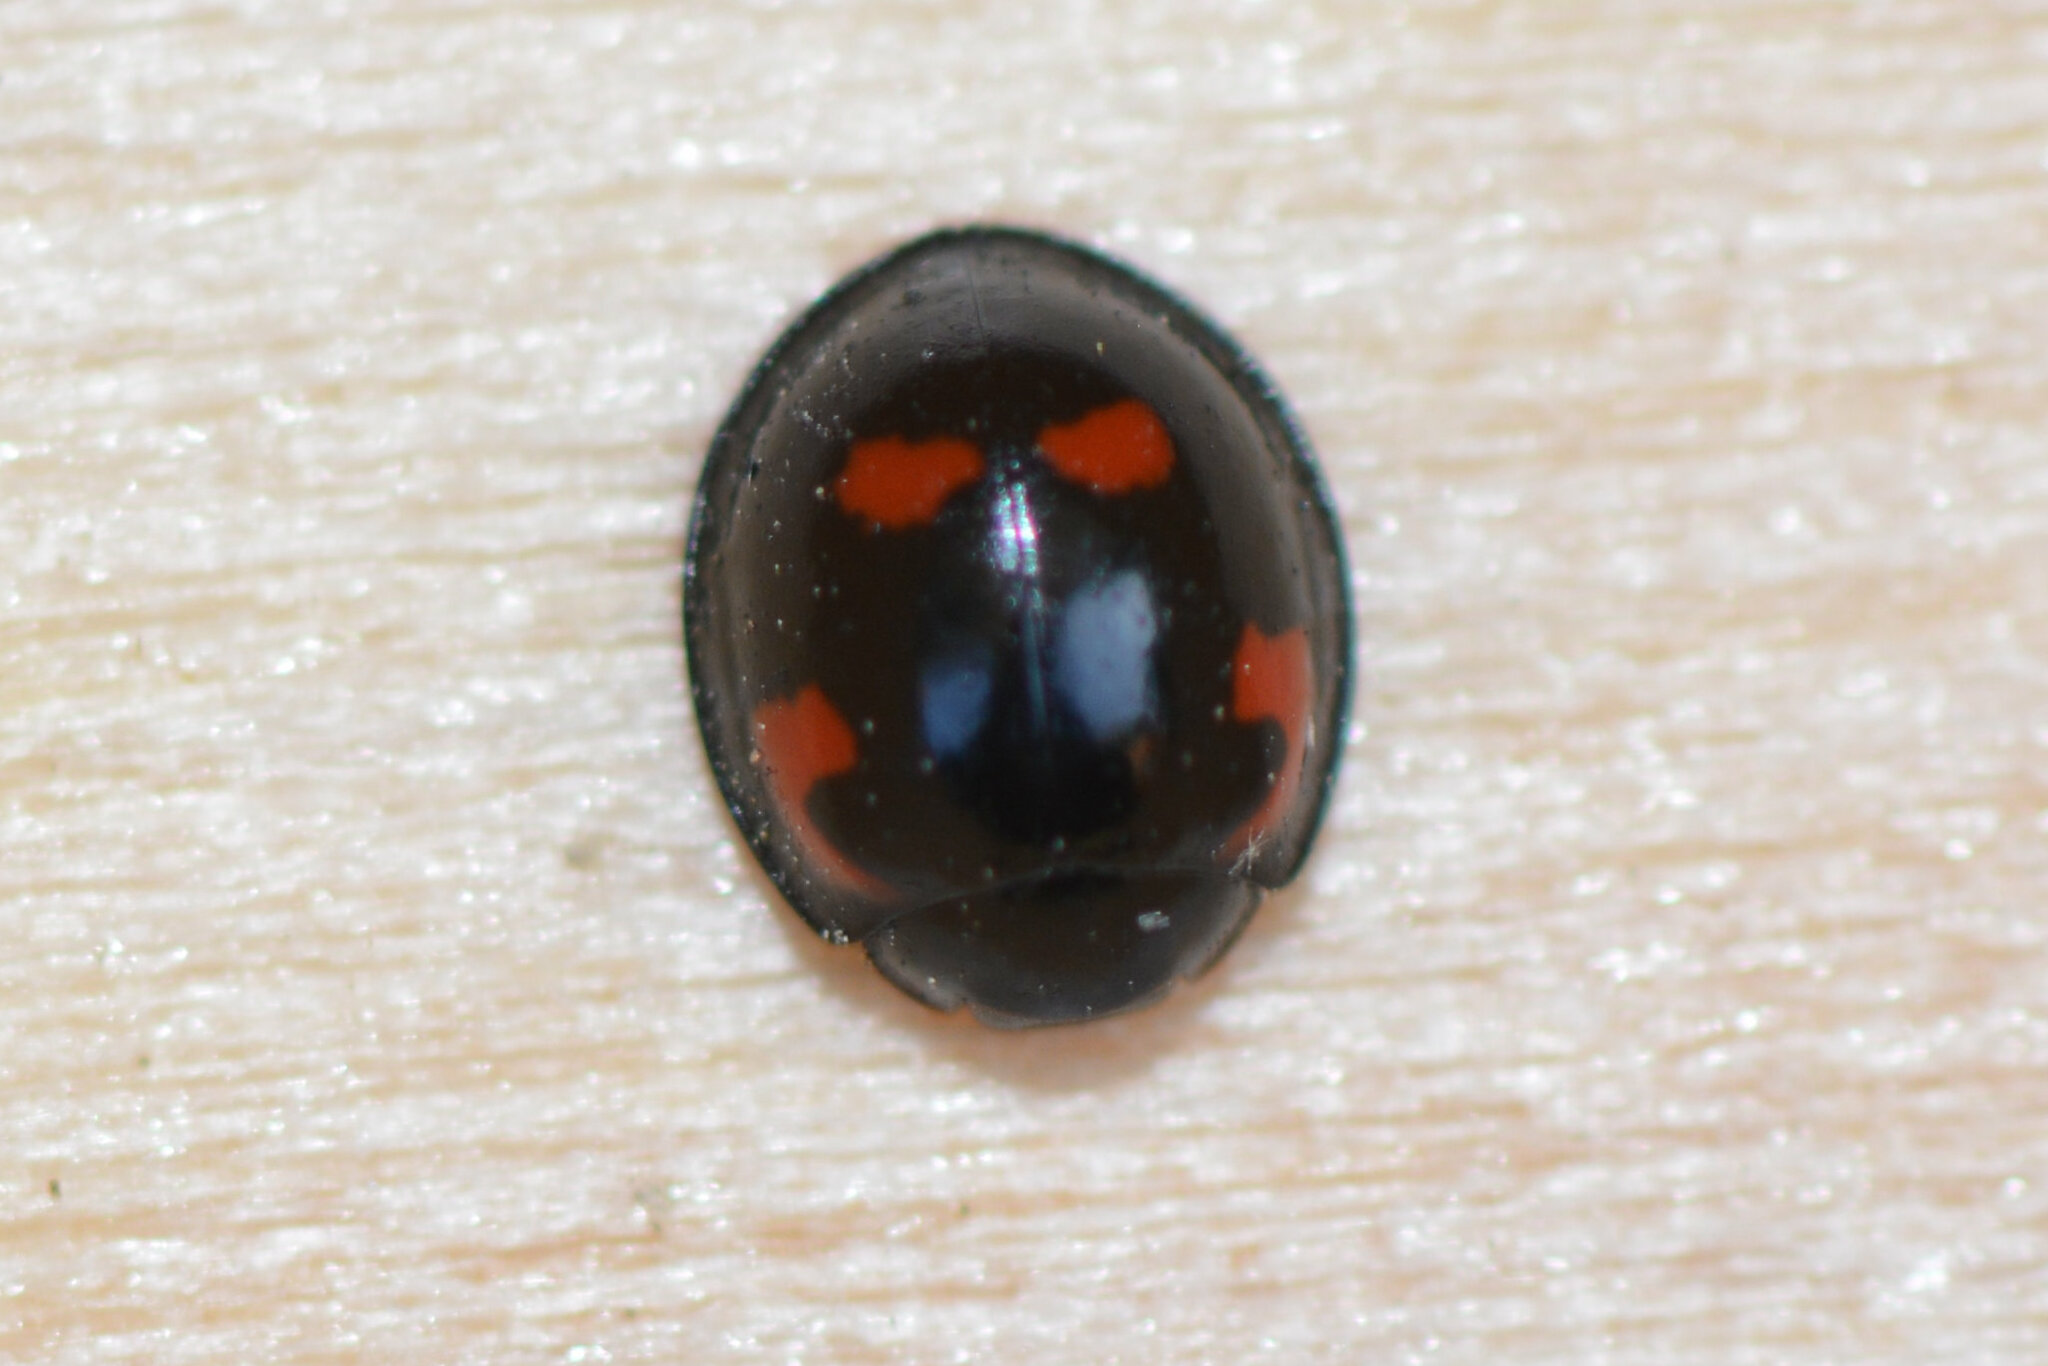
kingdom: Animalia
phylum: Arthropoda
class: Insecta
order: Coleoptera
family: Coccinellidae
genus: Brumus
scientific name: Brumus quadripustulatus
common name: Ladybird beetle
